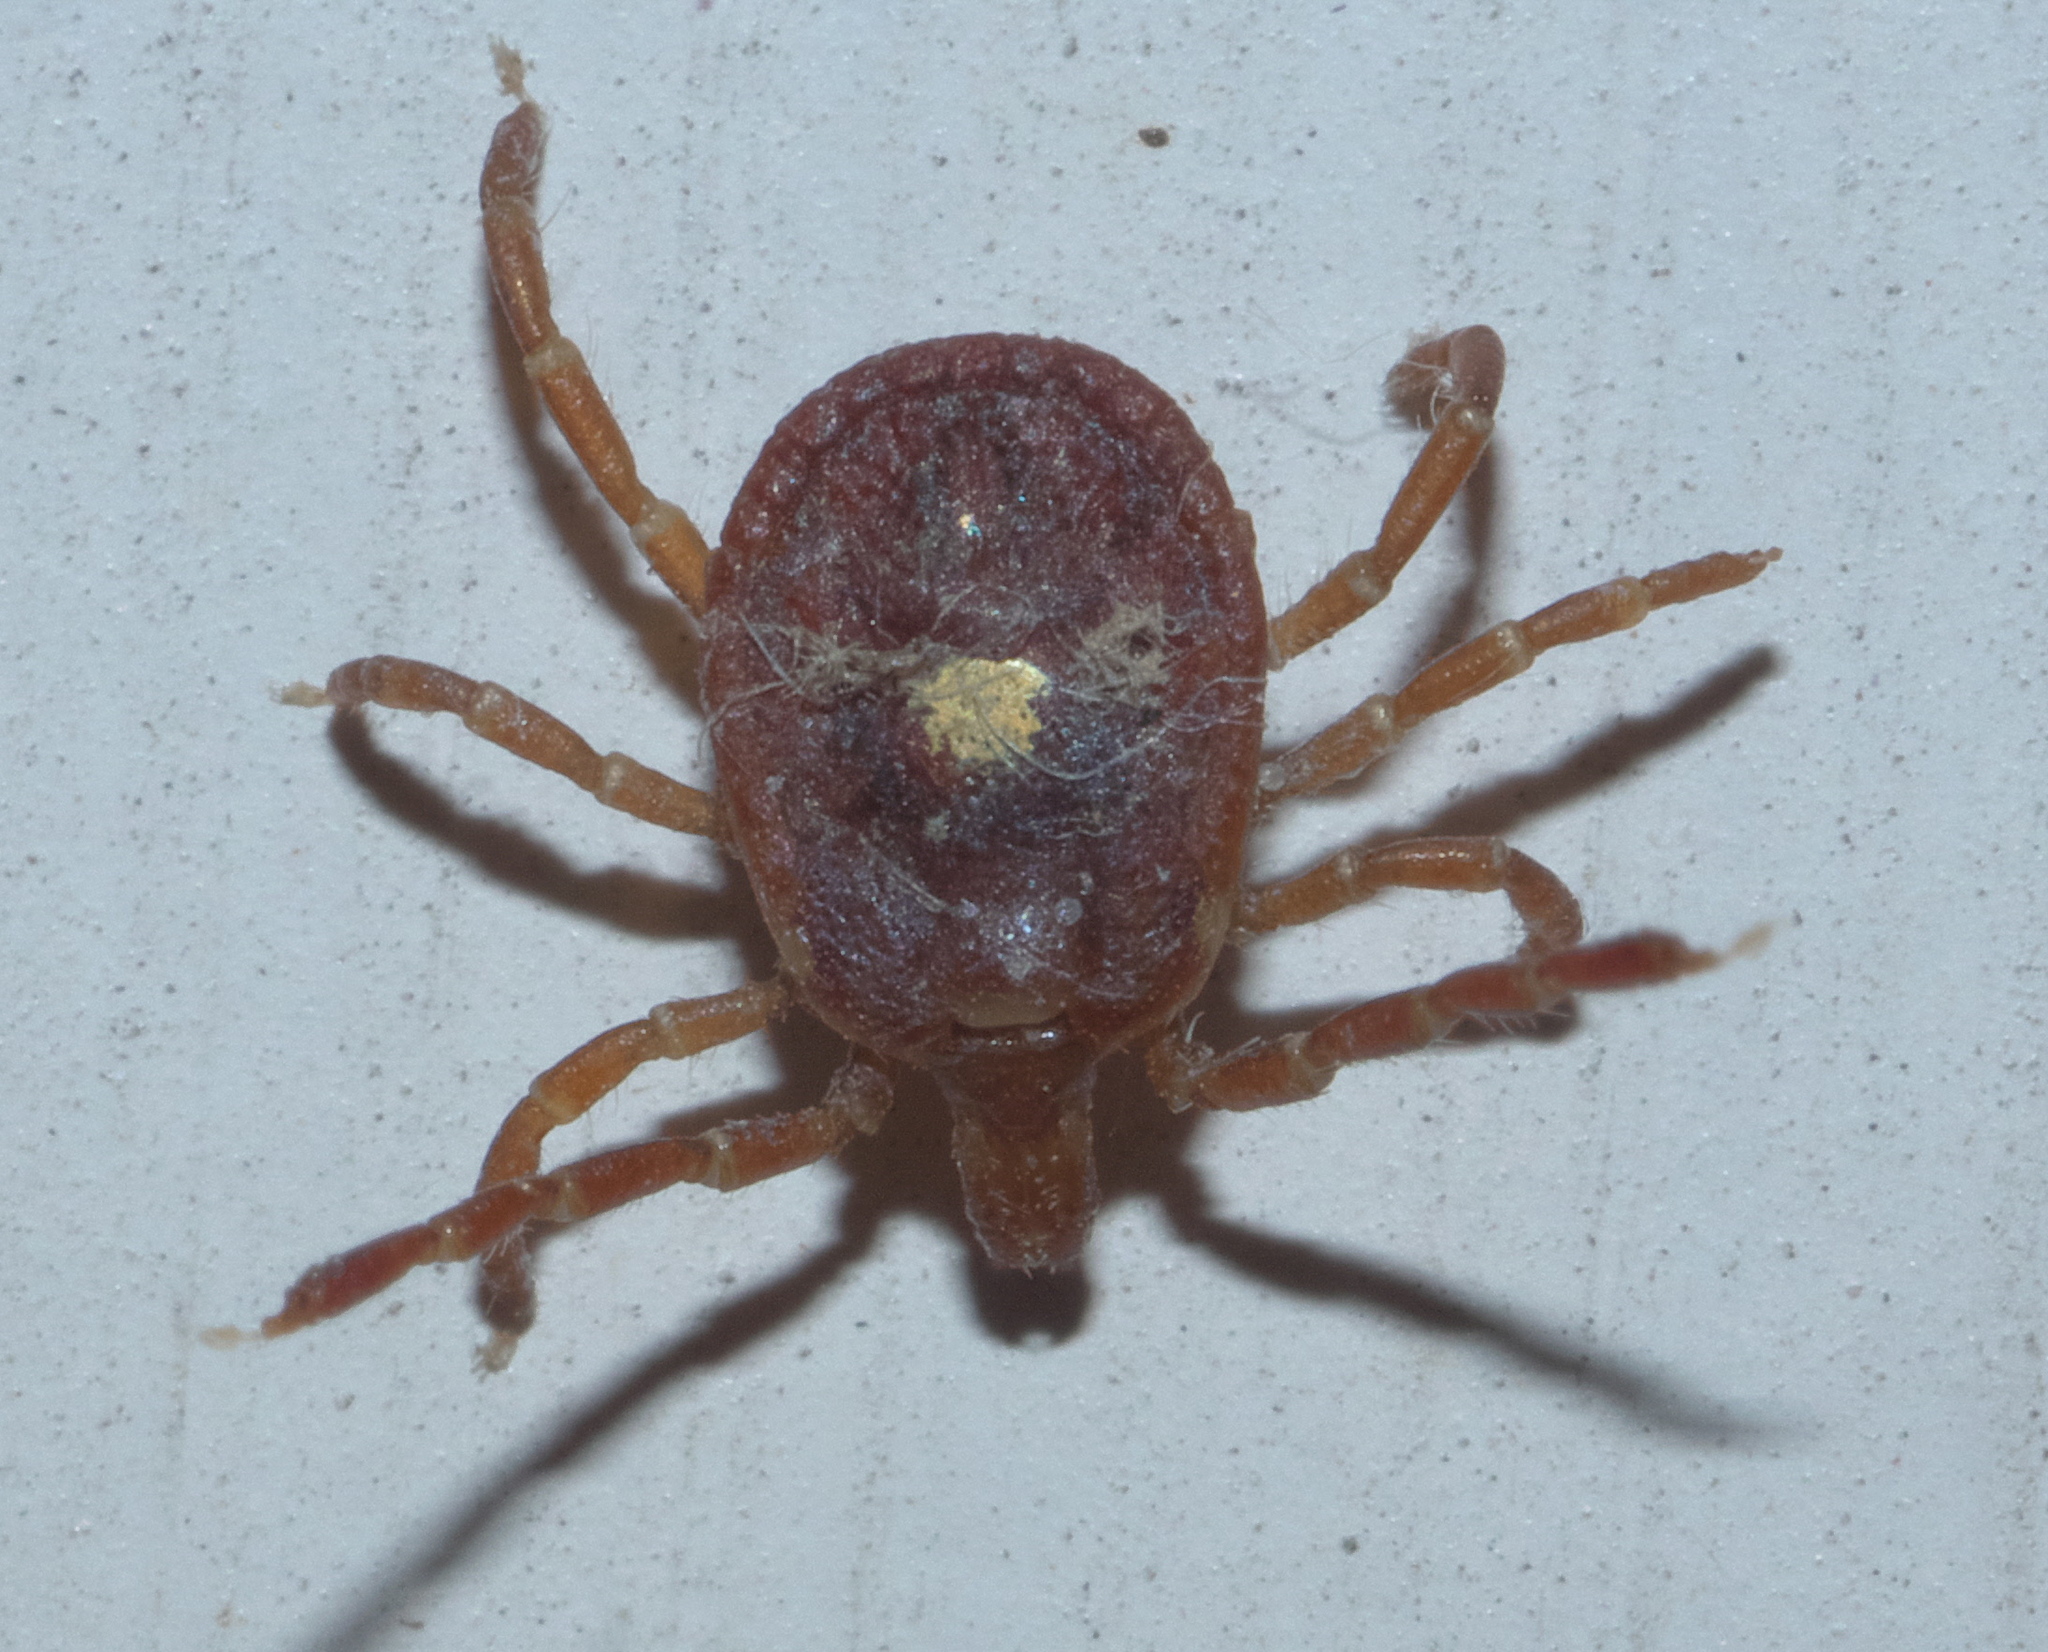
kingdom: Animalia
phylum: Arthropoda
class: Arachnida
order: Ixodida
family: Ixodidae
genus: Amblyomma
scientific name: Amblyomma americanum
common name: Lone star tick
